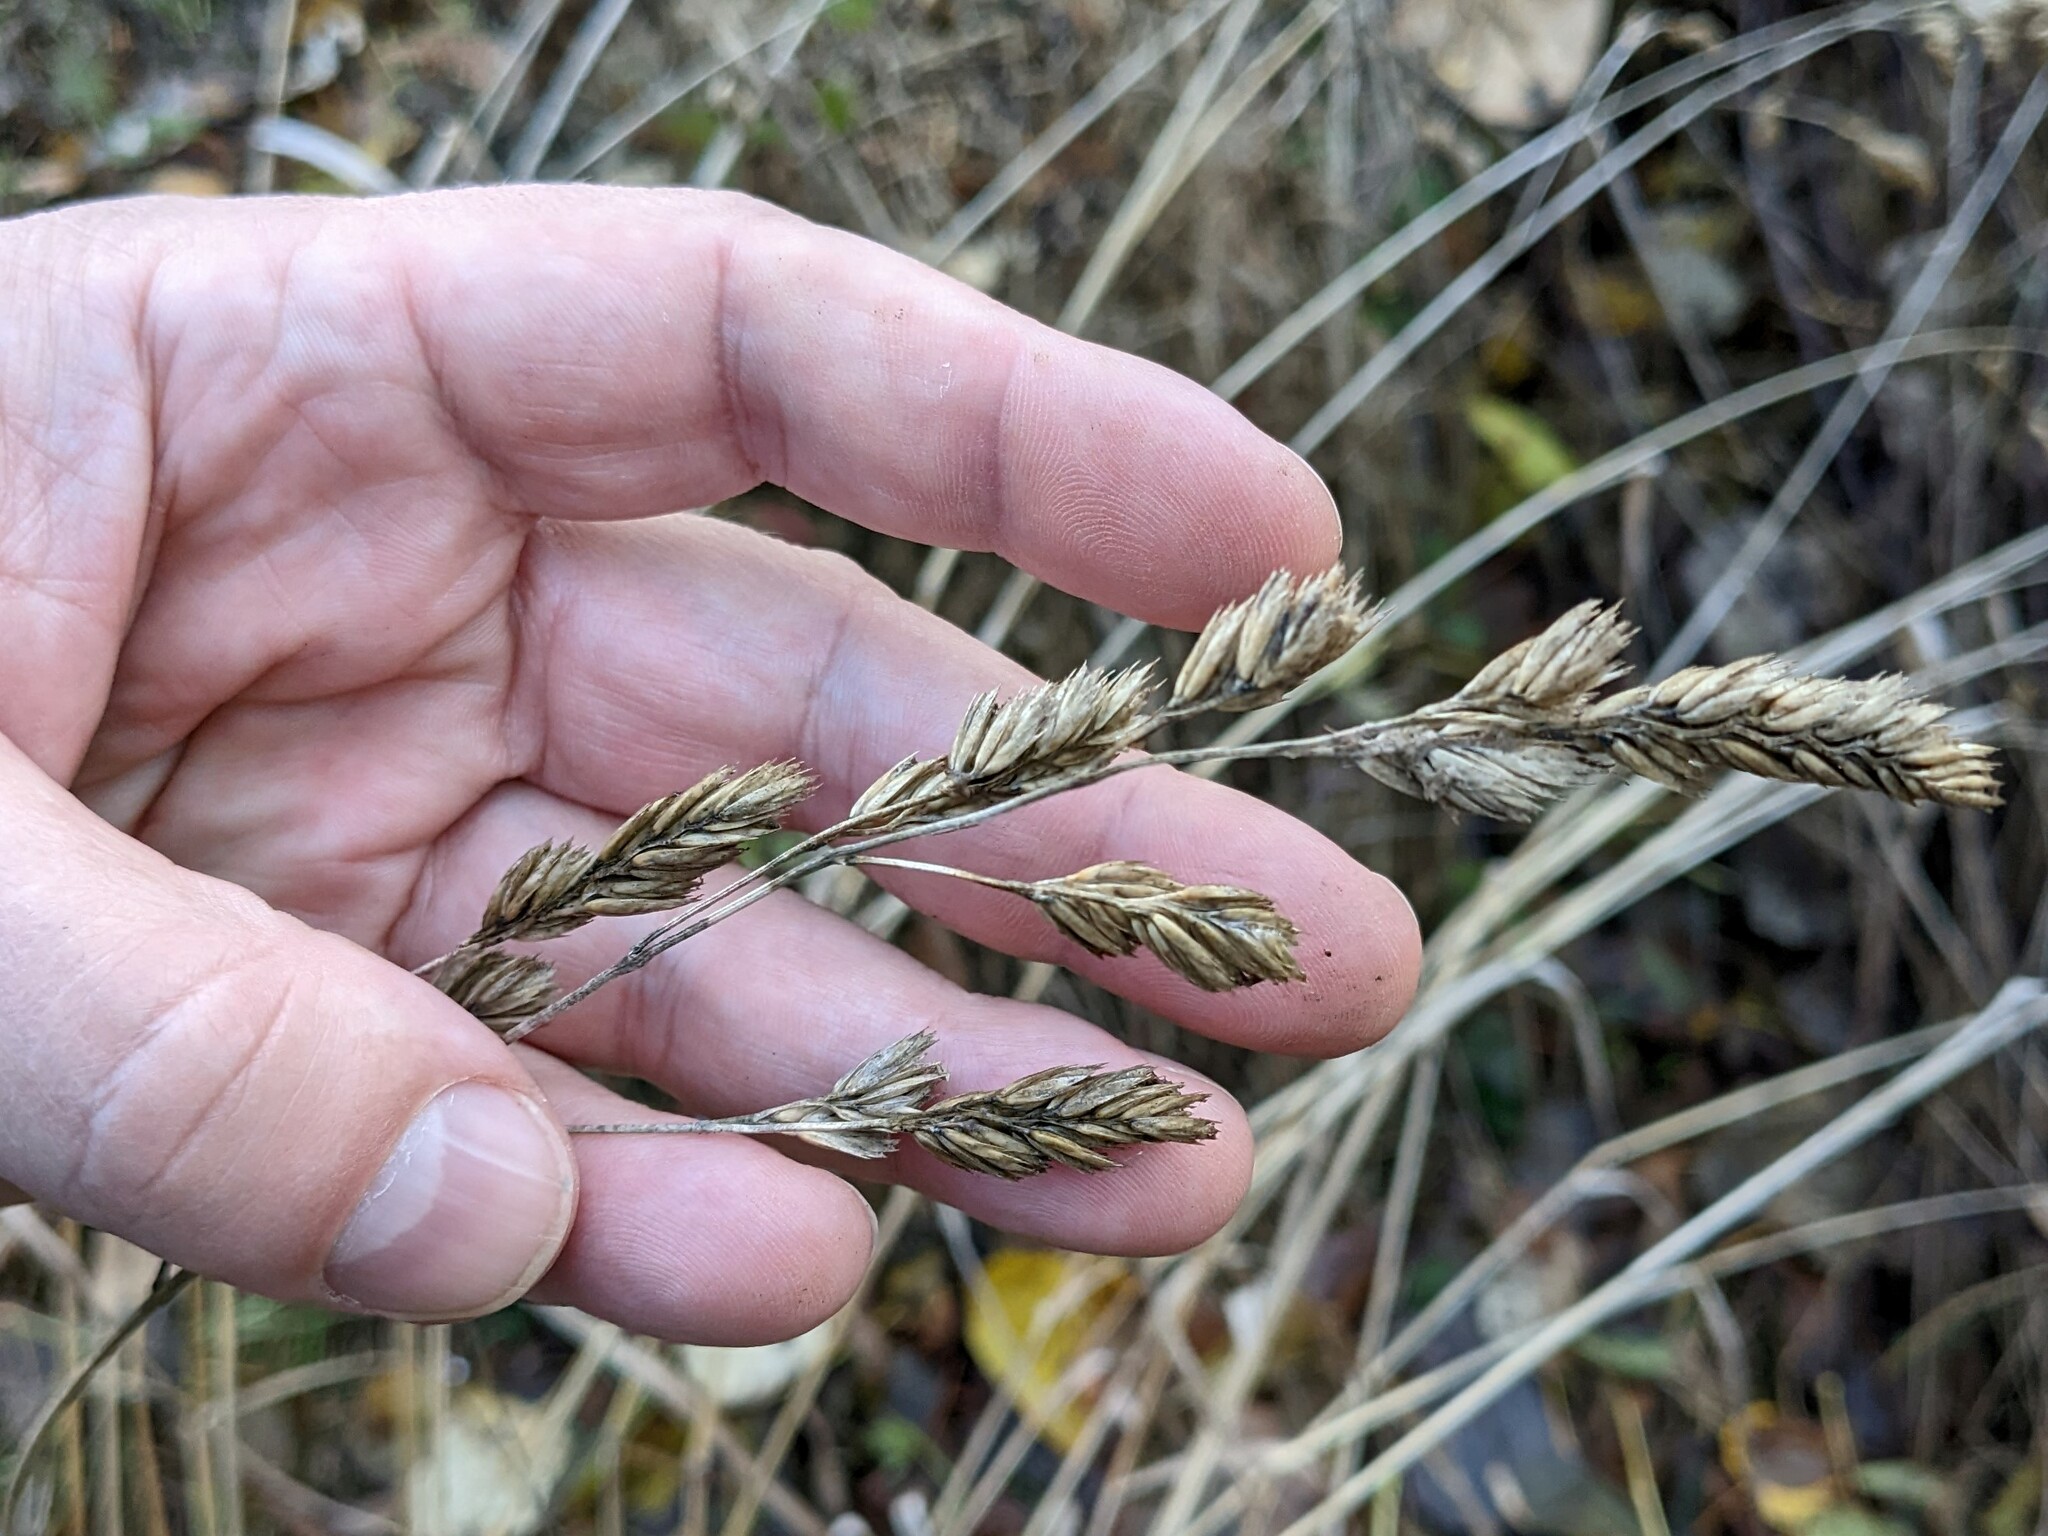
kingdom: Plantae
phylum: Tracheophyta
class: Liliopsida
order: Poales
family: Poaceae
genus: Dactylis
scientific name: Dactylis glomerata
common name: Orchardgrass
